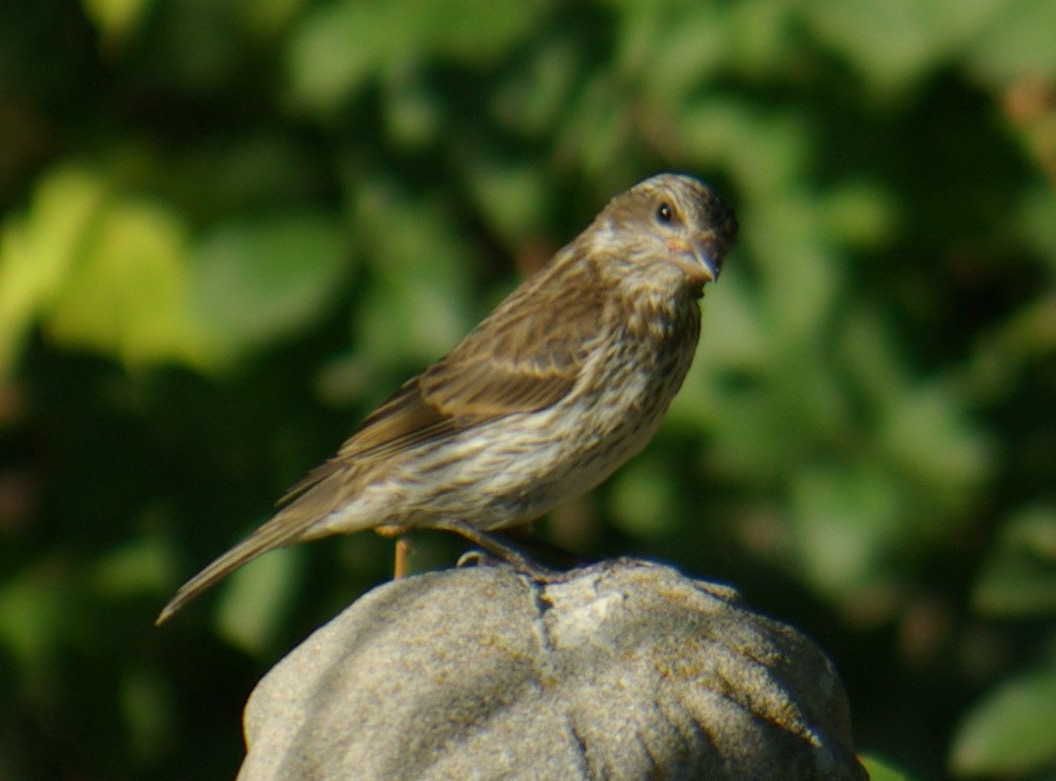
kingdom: Animalia
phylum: Chordata
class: Aves
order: Passeriformes
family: Fringillidae
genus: Haemorhous
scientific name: Haemorhous purpureus
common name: Purple finch
